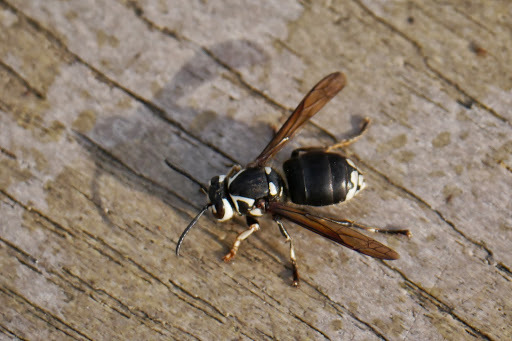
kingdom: Animalia
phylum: Arthropoda
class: Insecta
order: Hymenoptera
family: Vespidae
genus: Dolichovespula
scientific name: Dolichovespula maculata
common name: Bald-faced hornet
